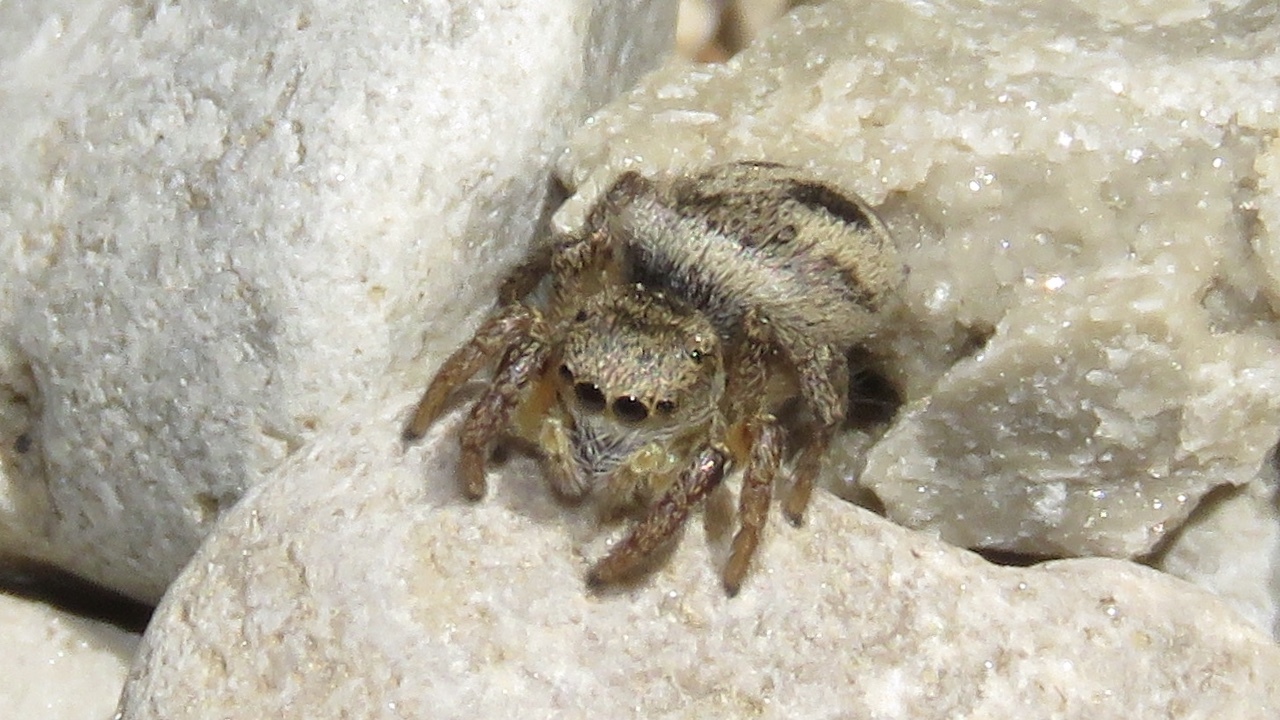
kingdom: Animalia
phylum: Arthropoda
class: Arachnida
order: Araneae
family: Salticidae
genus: Habronattus
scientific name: Habronattus decorus
